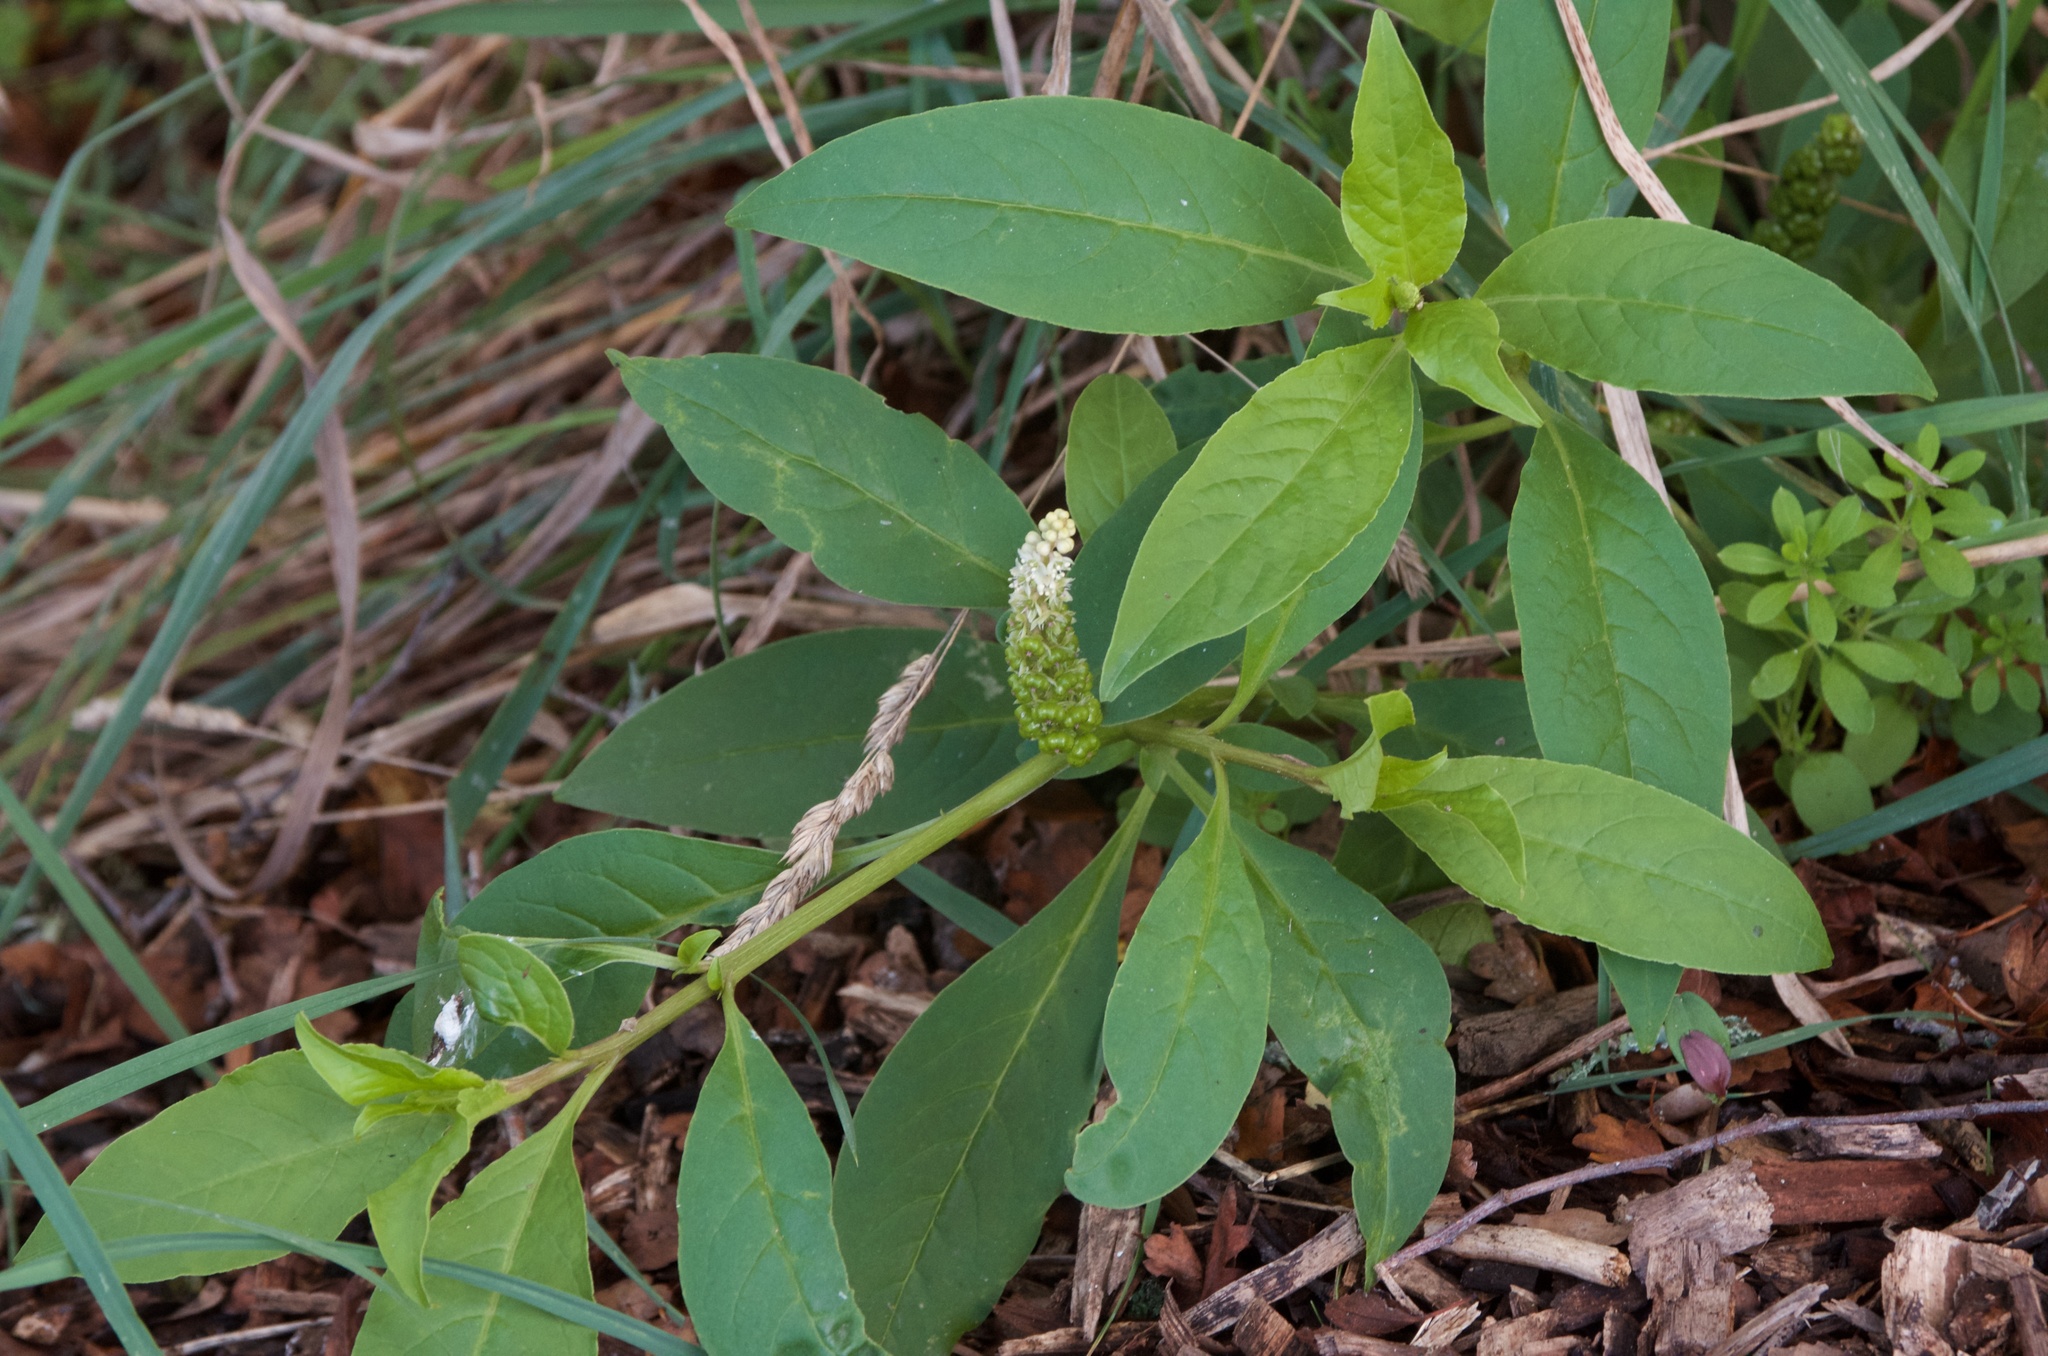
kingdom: Plantae
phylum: Tracheophyta
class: Magnoliopsida
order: Caryophyllales
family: Phytolaccaceae
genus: Phytolacca
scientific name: Phytolacca icosandra
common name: Button pokeweed
